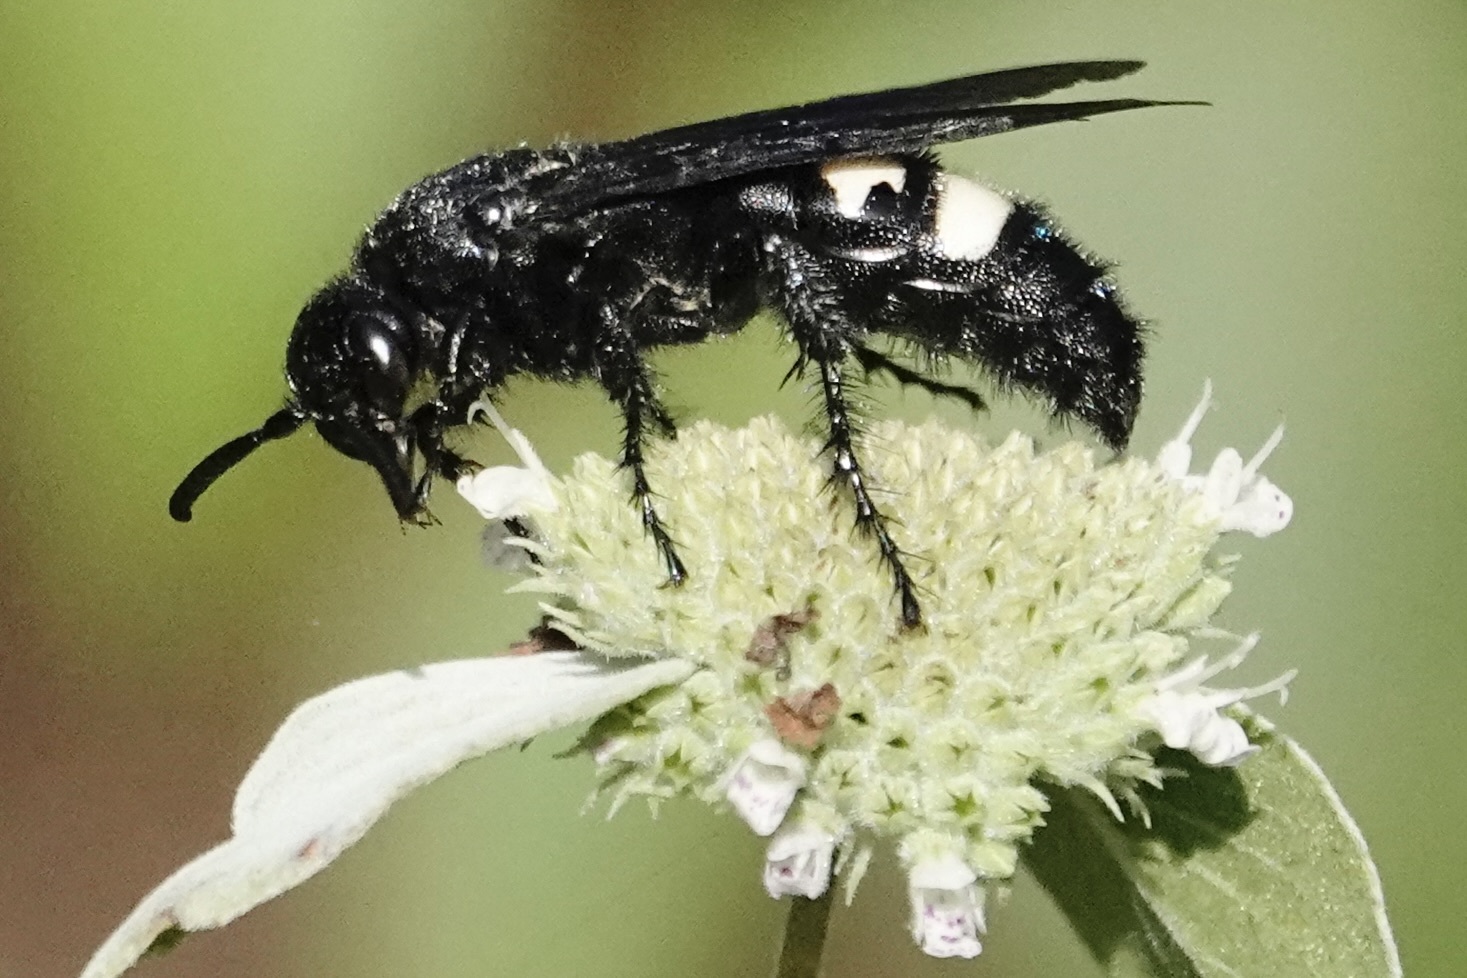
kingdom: Animalia
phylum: Arthropoda
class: Insecta
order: Hymenoptera
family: Scoliidae
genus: Scolia
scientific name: Scolia bicincta
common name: Double-banded scoliid wasp
